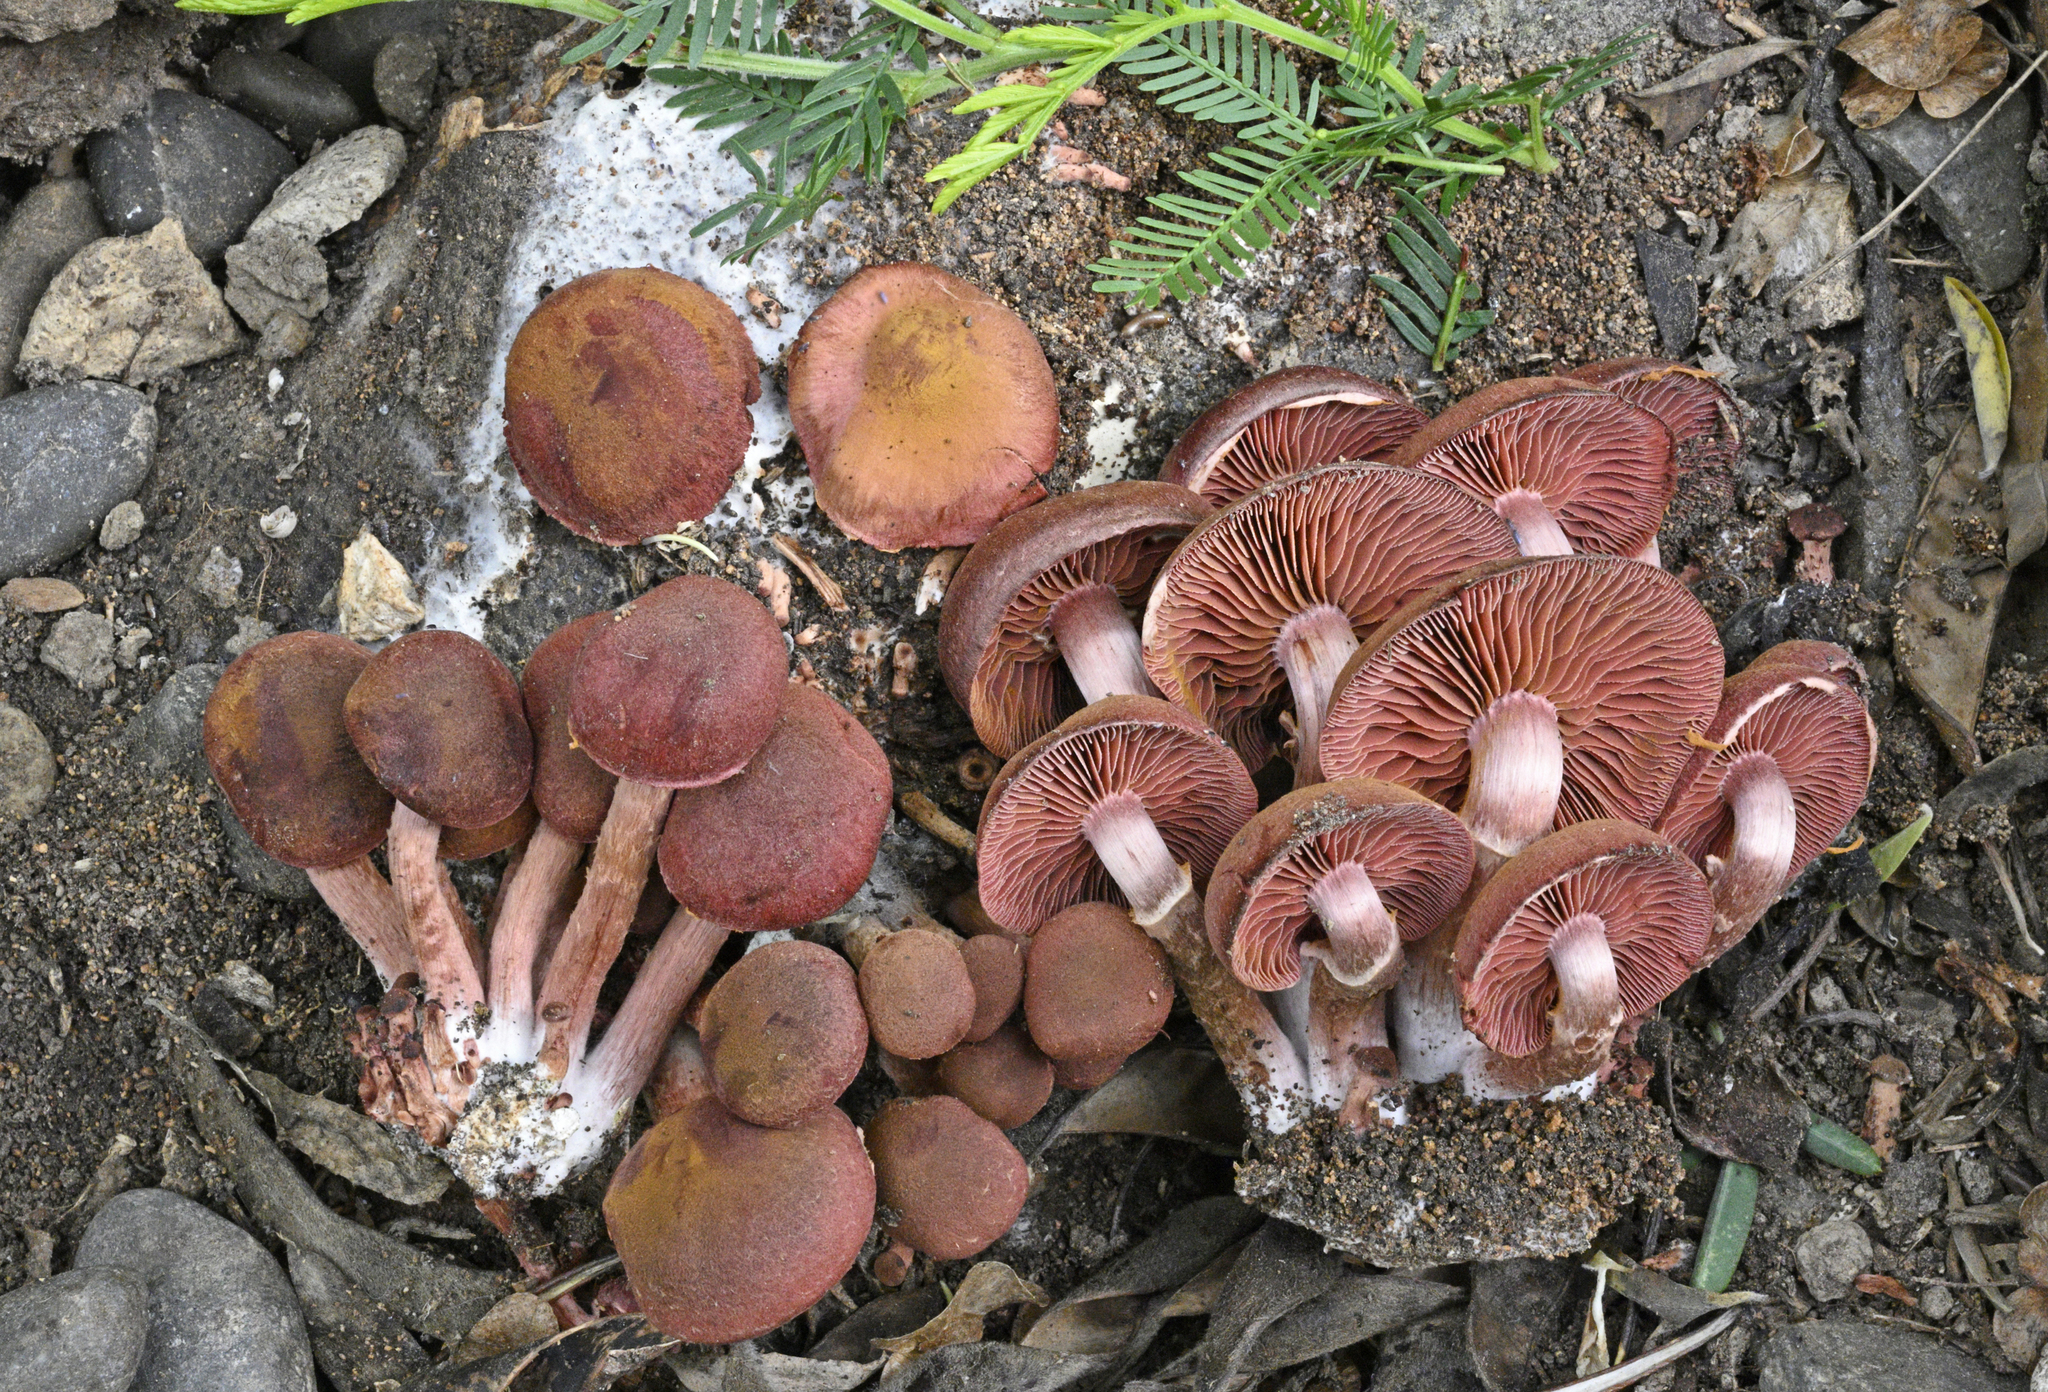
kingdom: Fungi
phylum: Basidiomycota
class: Agaricomycetes
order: Agaricales
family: Tubariaceae
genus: Tubaria
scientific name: Tubaria vinicolor
